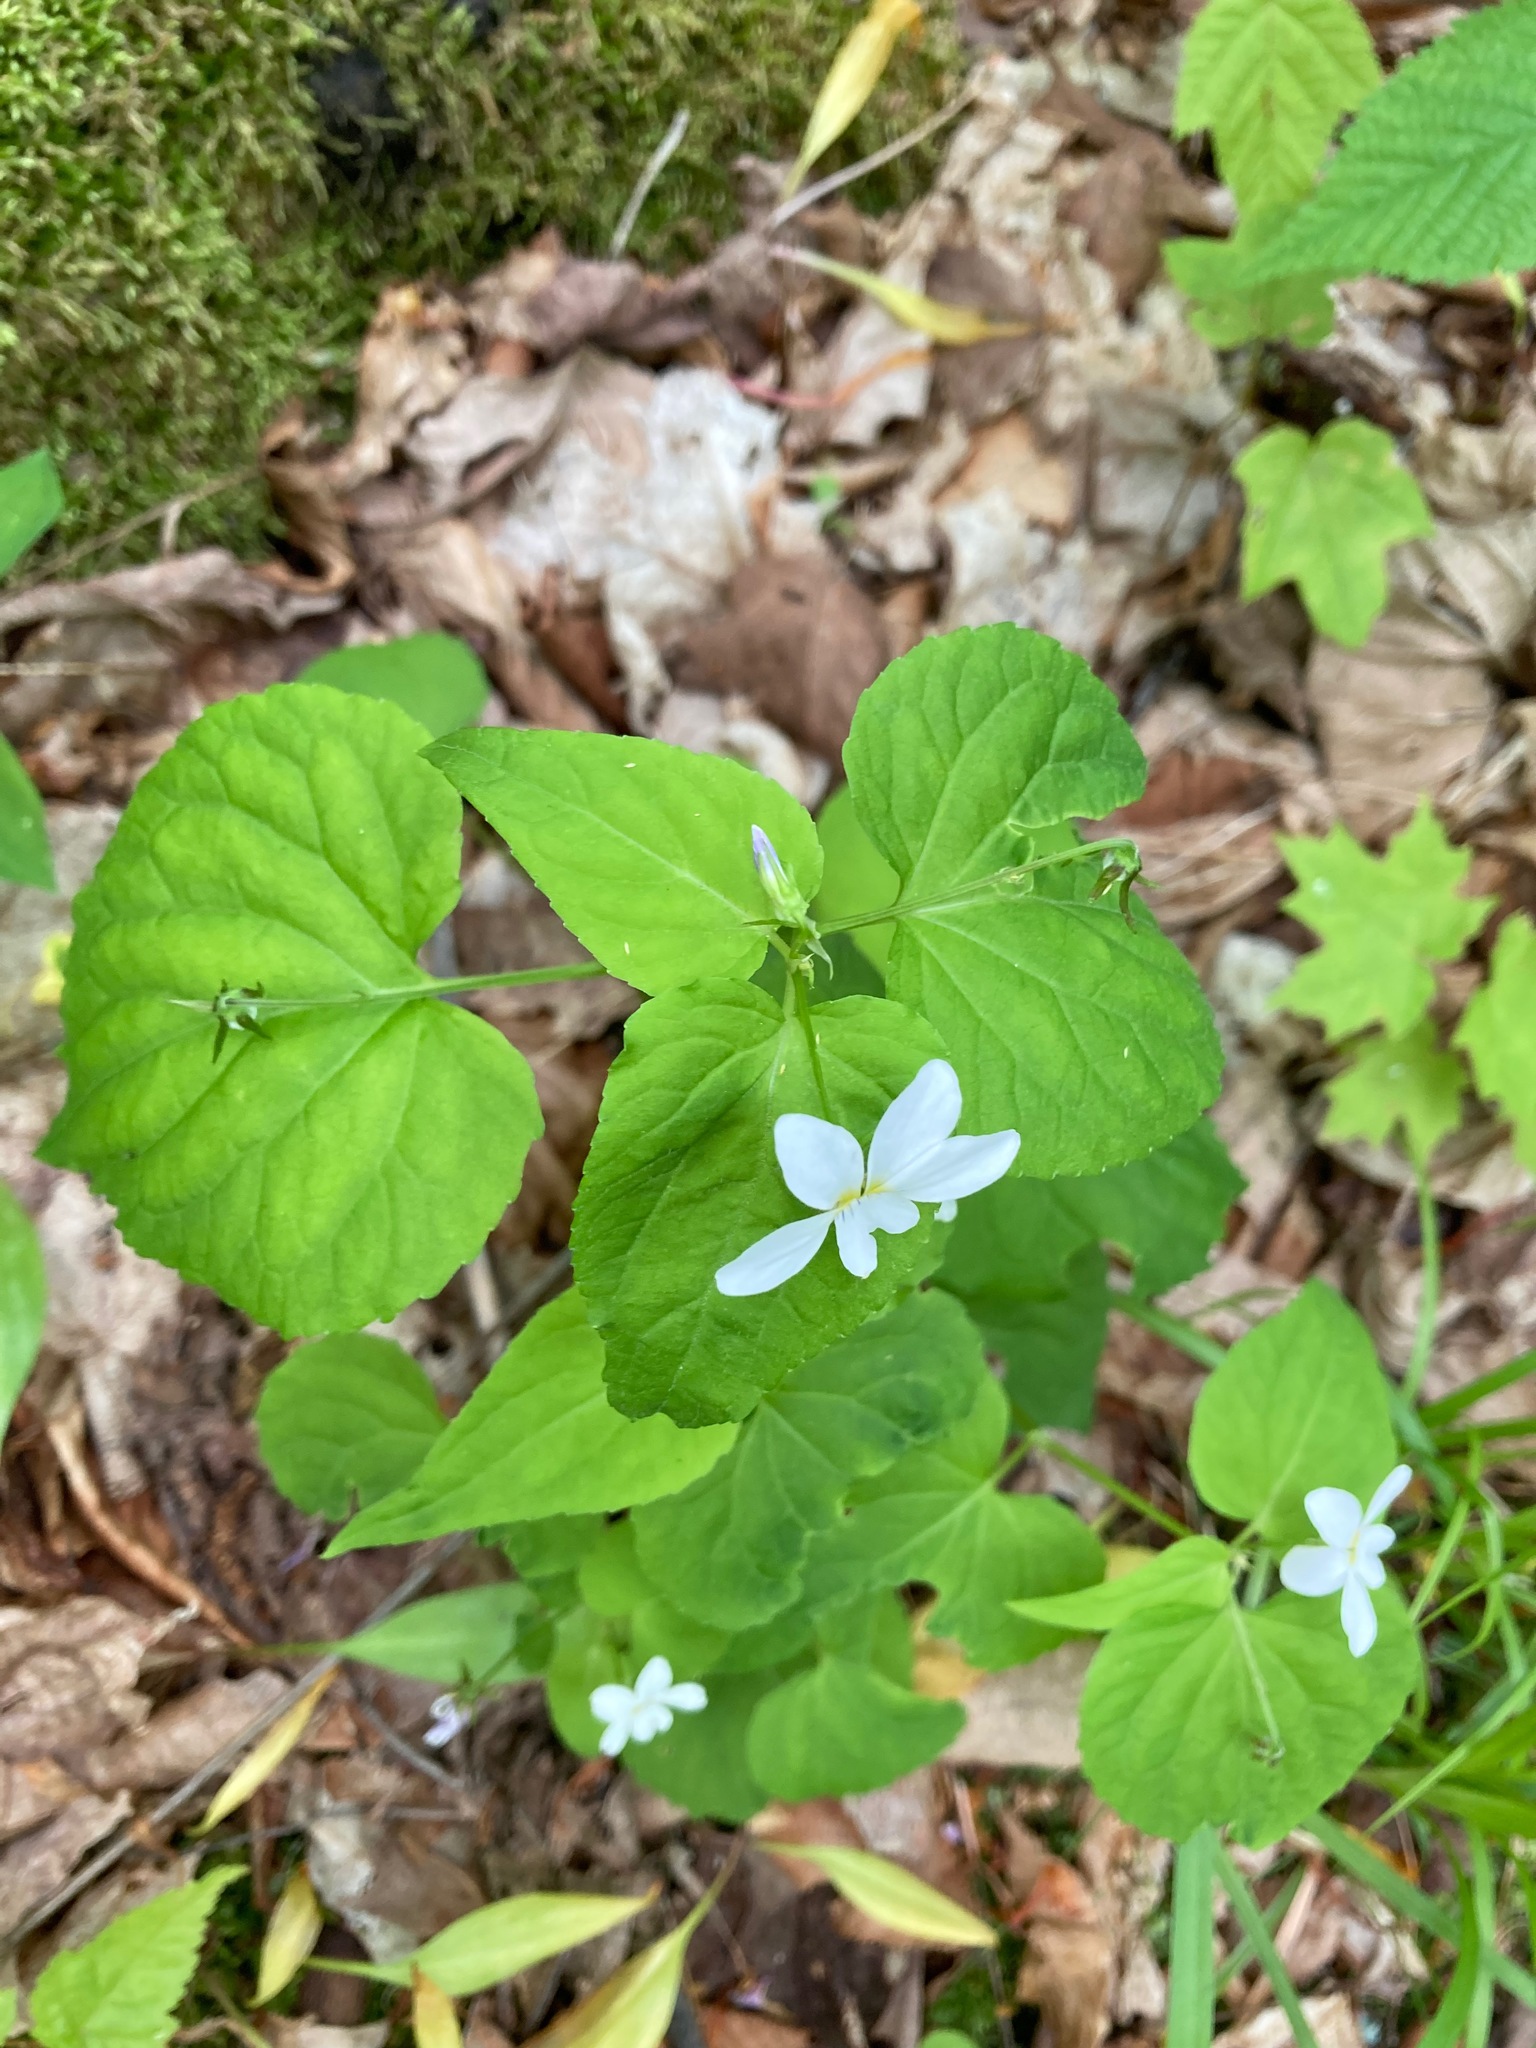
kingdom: Plantae
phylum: Tracheophyta
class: Magnoliopsida
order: Malpighiales
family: Violaceae
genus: Viola
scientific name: Viola canadensis
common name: Canada violet
